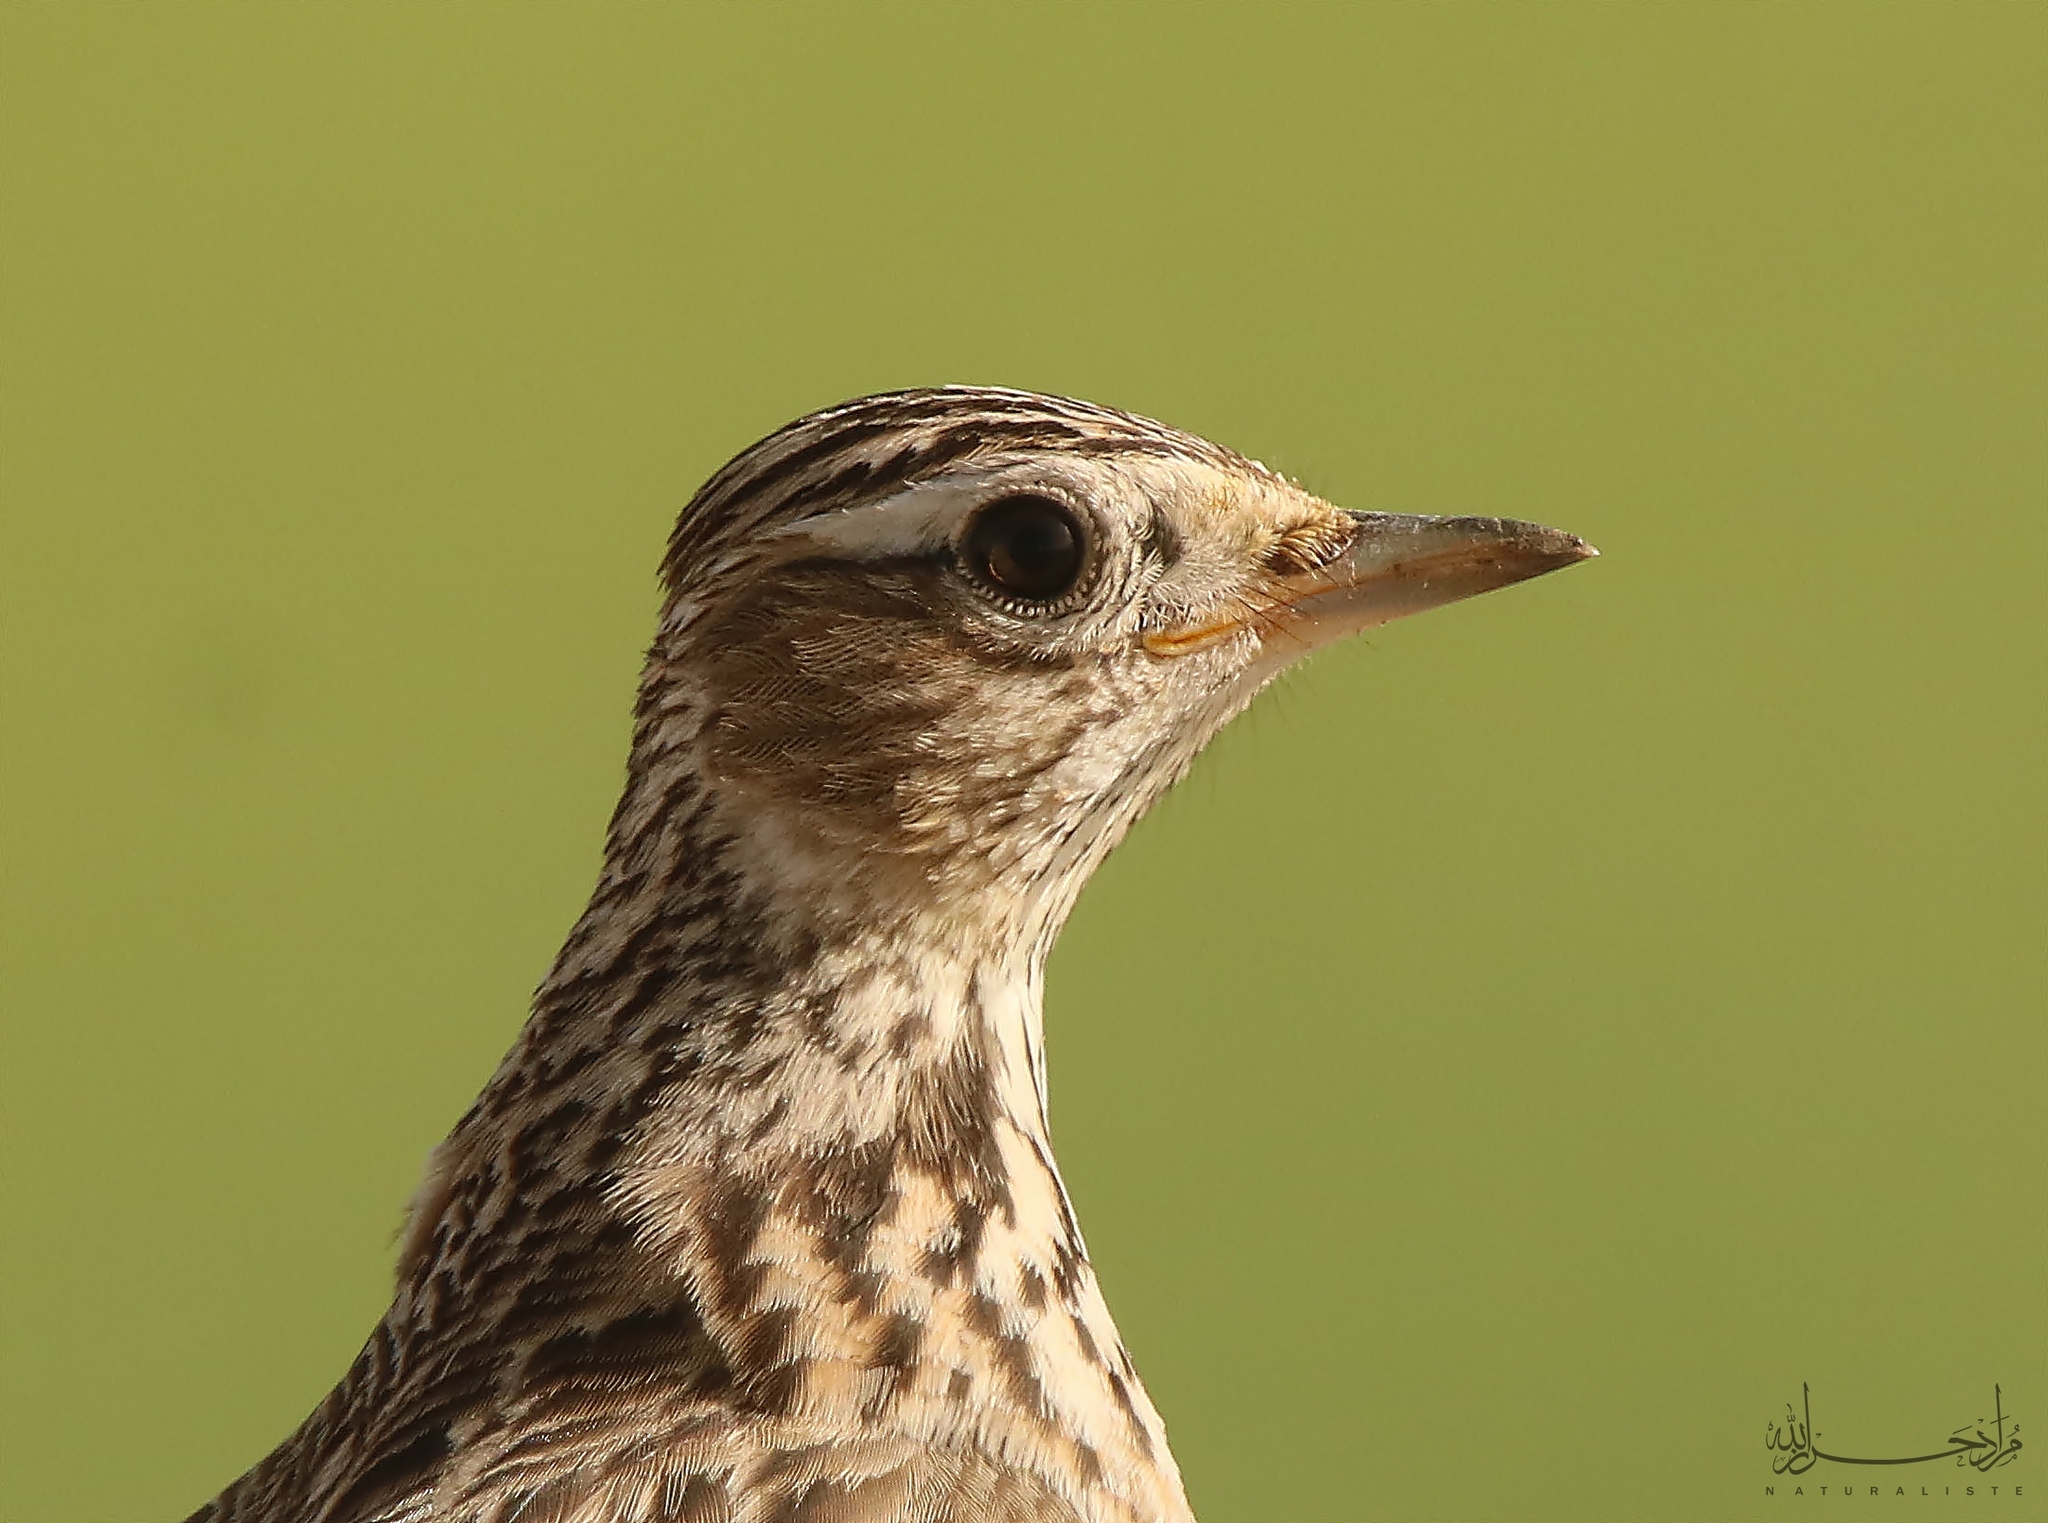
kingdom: Animalia
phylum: Chordata
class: Aves
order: Passeriformes
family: Alaudidae
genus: Alauda
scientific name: Alauda arvensis
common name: Eurasian skylark
